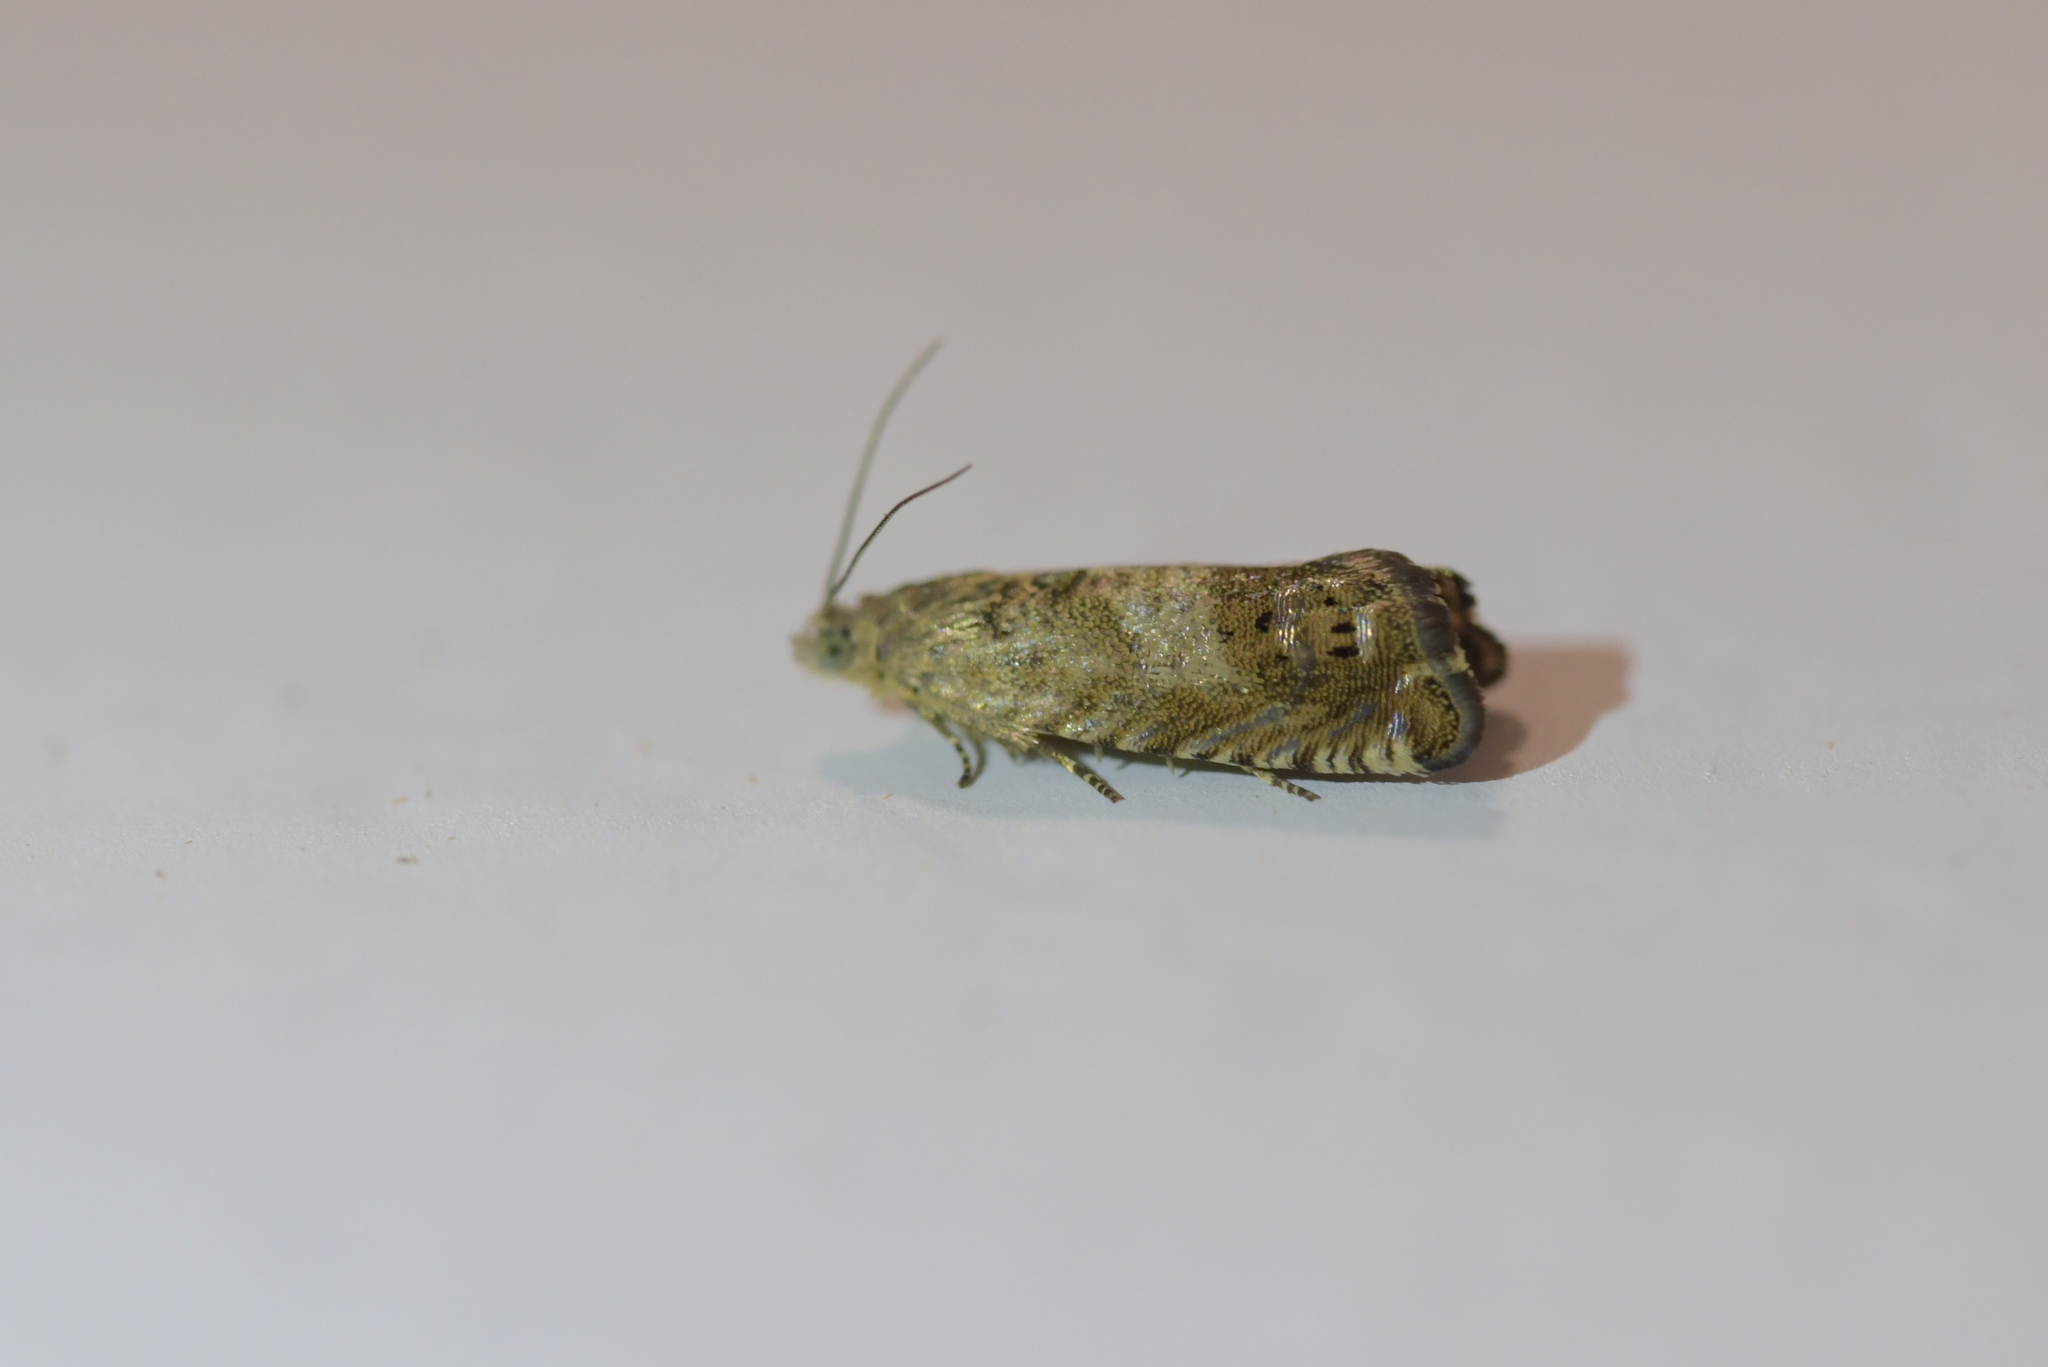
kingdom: Animalia
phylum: Arthropoda
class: Insecta
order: Lepidoptera
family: Tortricidae
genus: Cydia
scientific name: Cydia succedana
